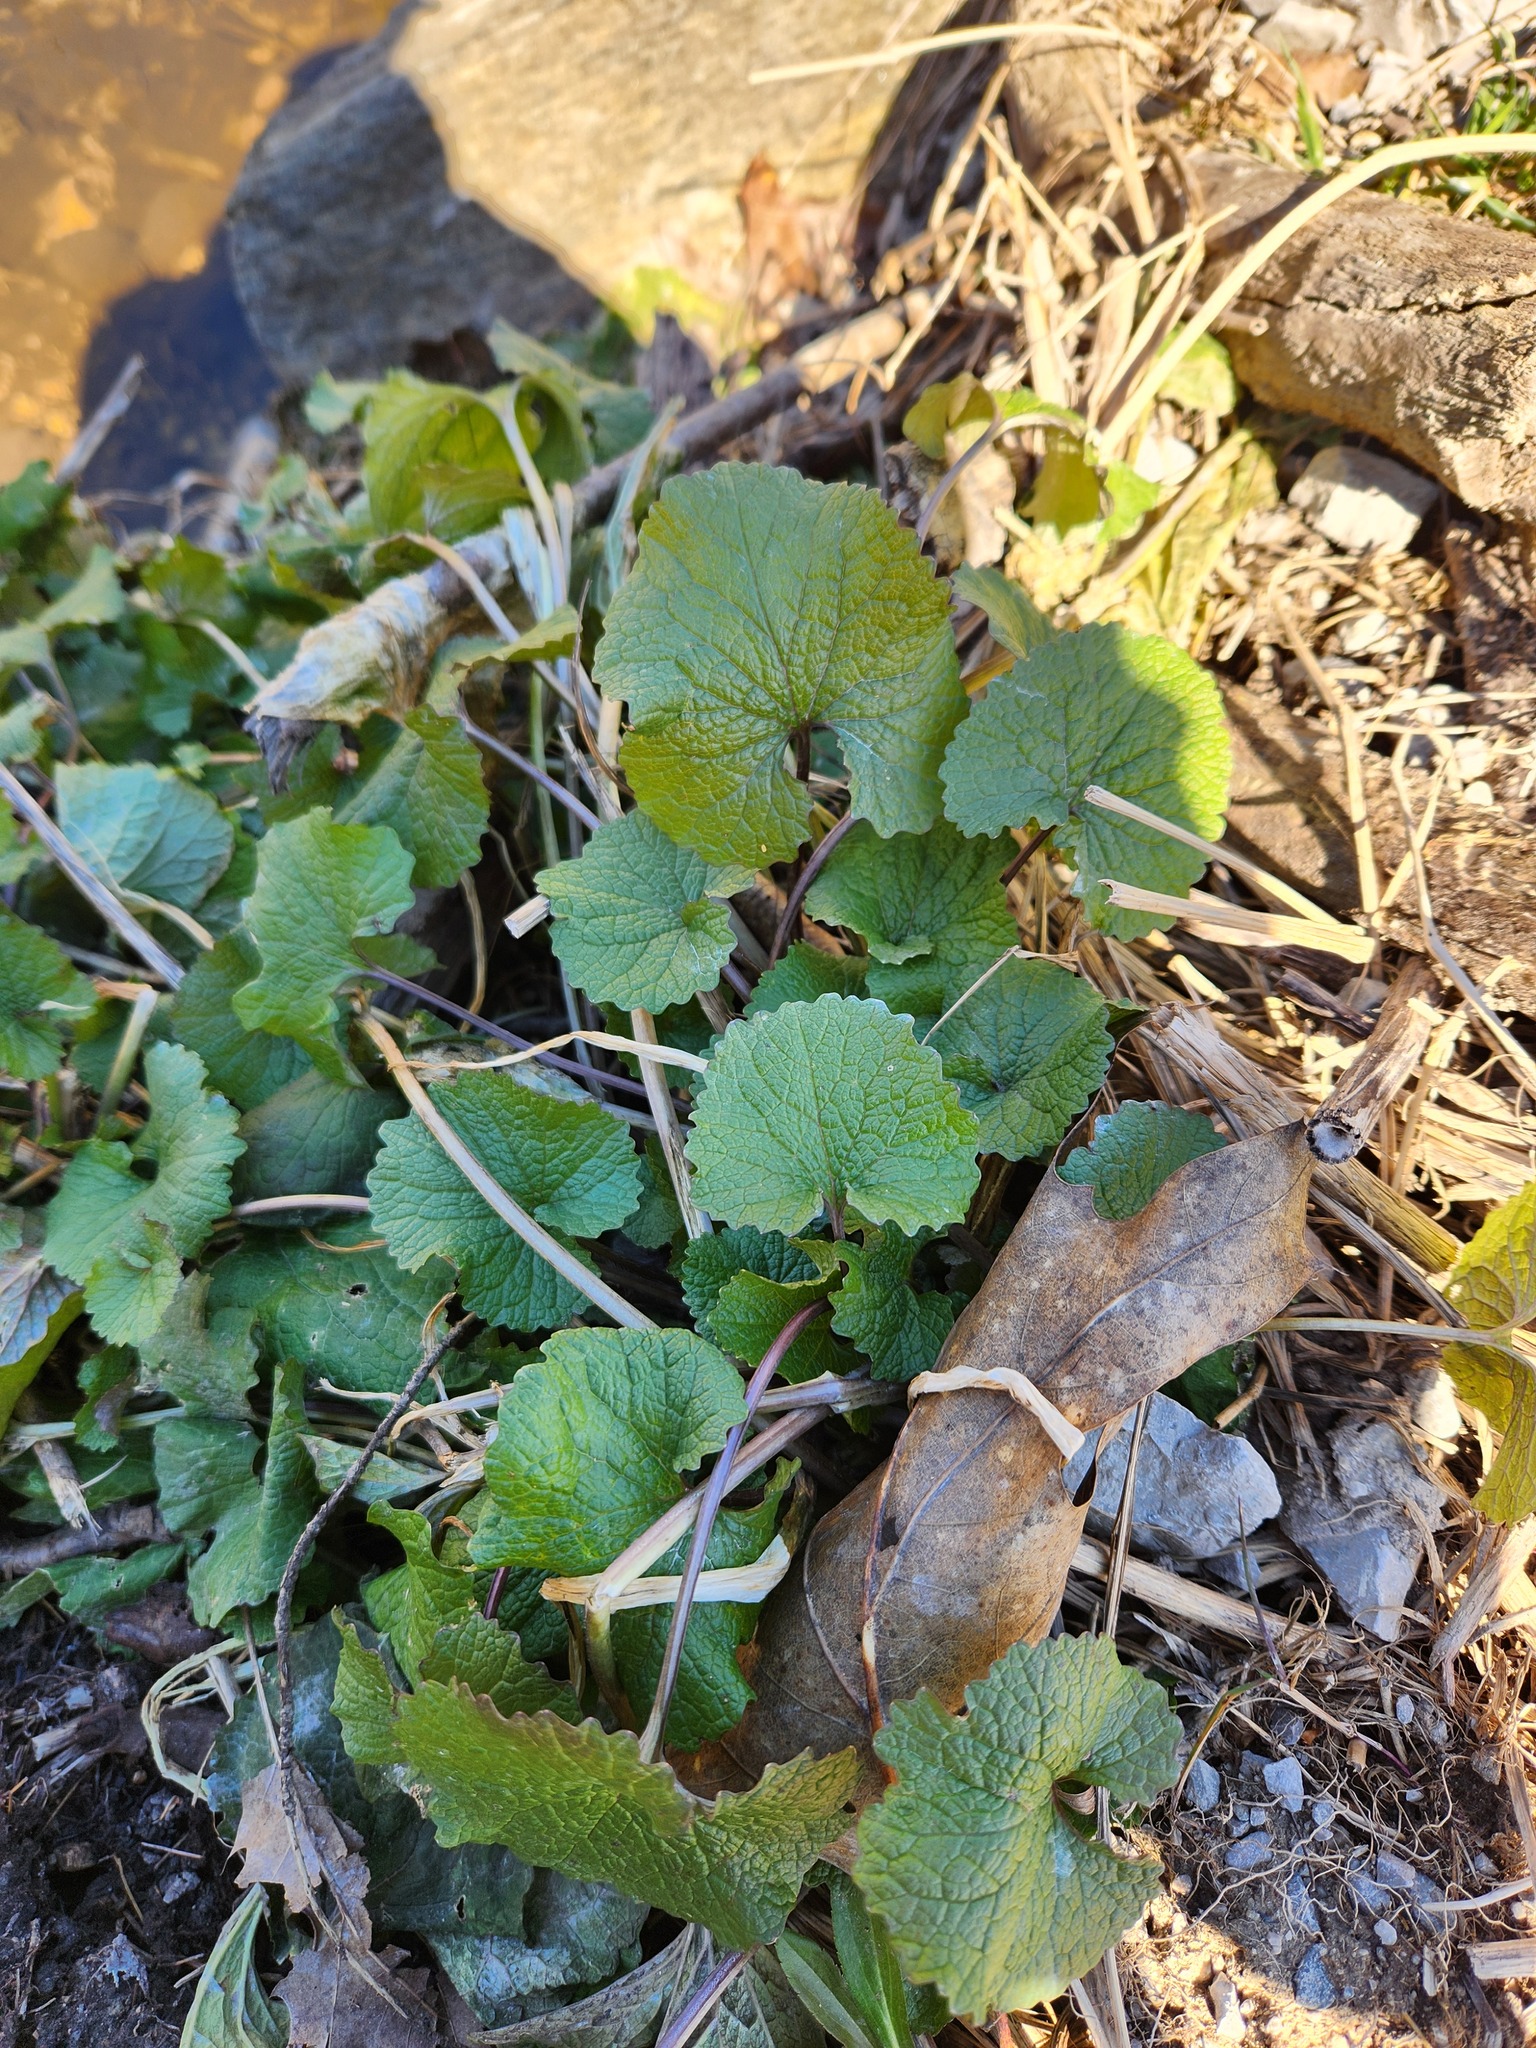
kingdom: Plantae
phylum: Tracheophyta
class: Magnoliopsida
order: Brassicales
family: Brassicaceae
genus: Alliaria
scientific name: Alliaria petiolata
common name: Garlic mustard
